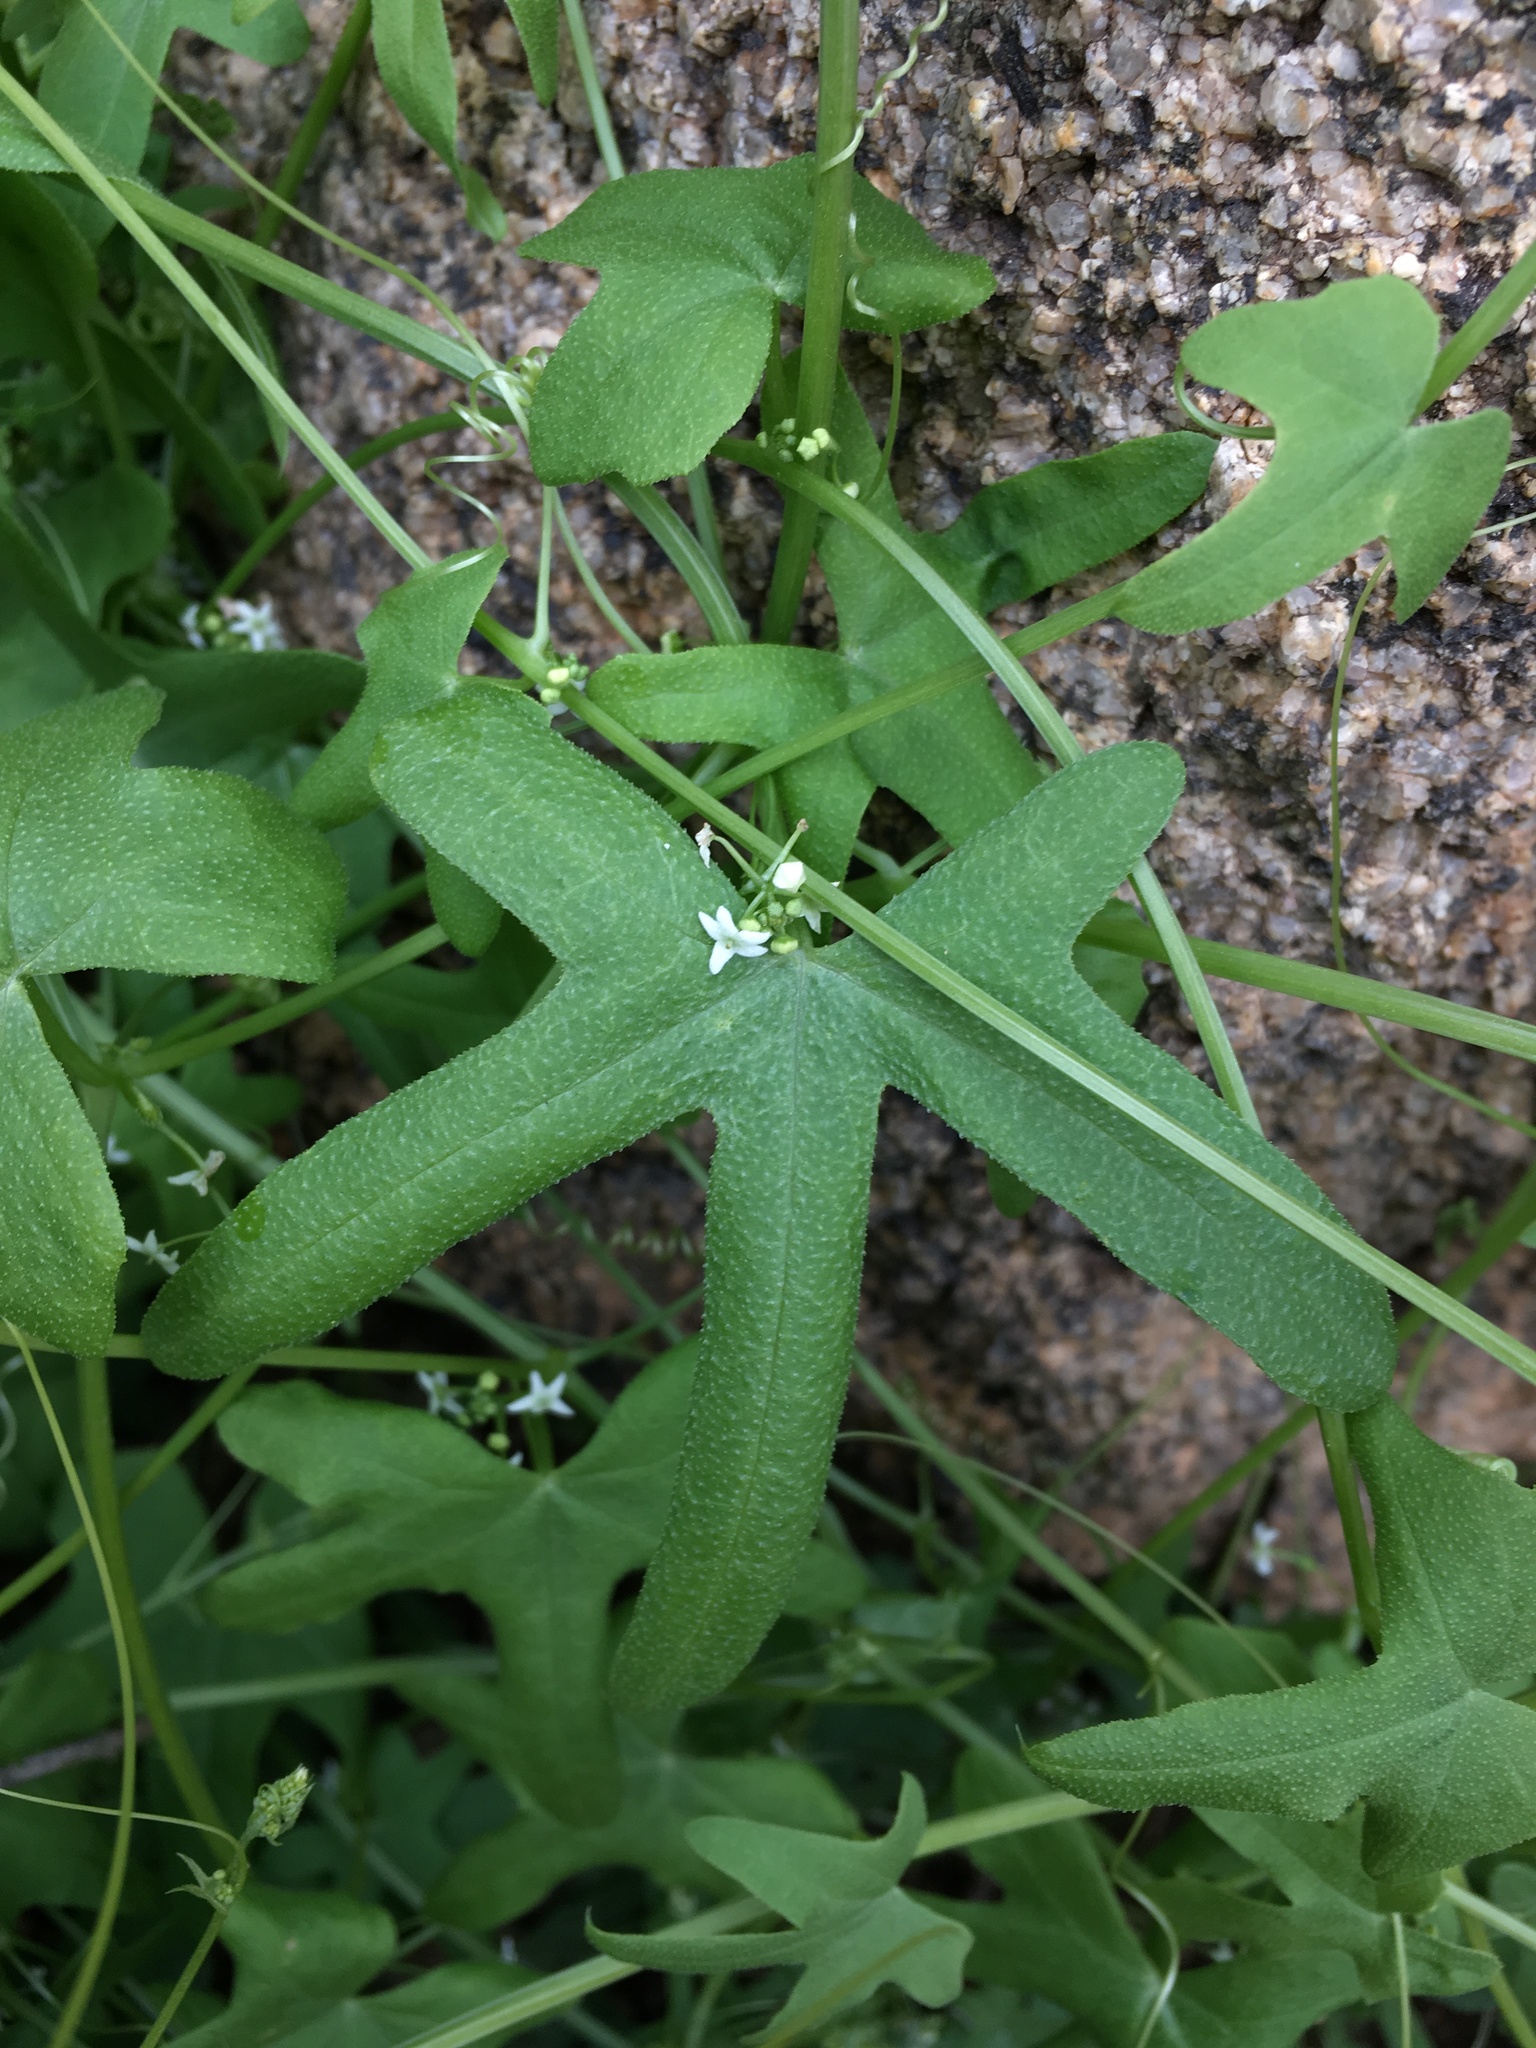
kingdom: Plantae
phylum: Tracheophyta
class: Magnoliopsida
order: Cucurbitales
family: Cucurbitaceae
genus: Echinopepon
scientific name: Echinopepon bigelovii
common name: Desert starvine
